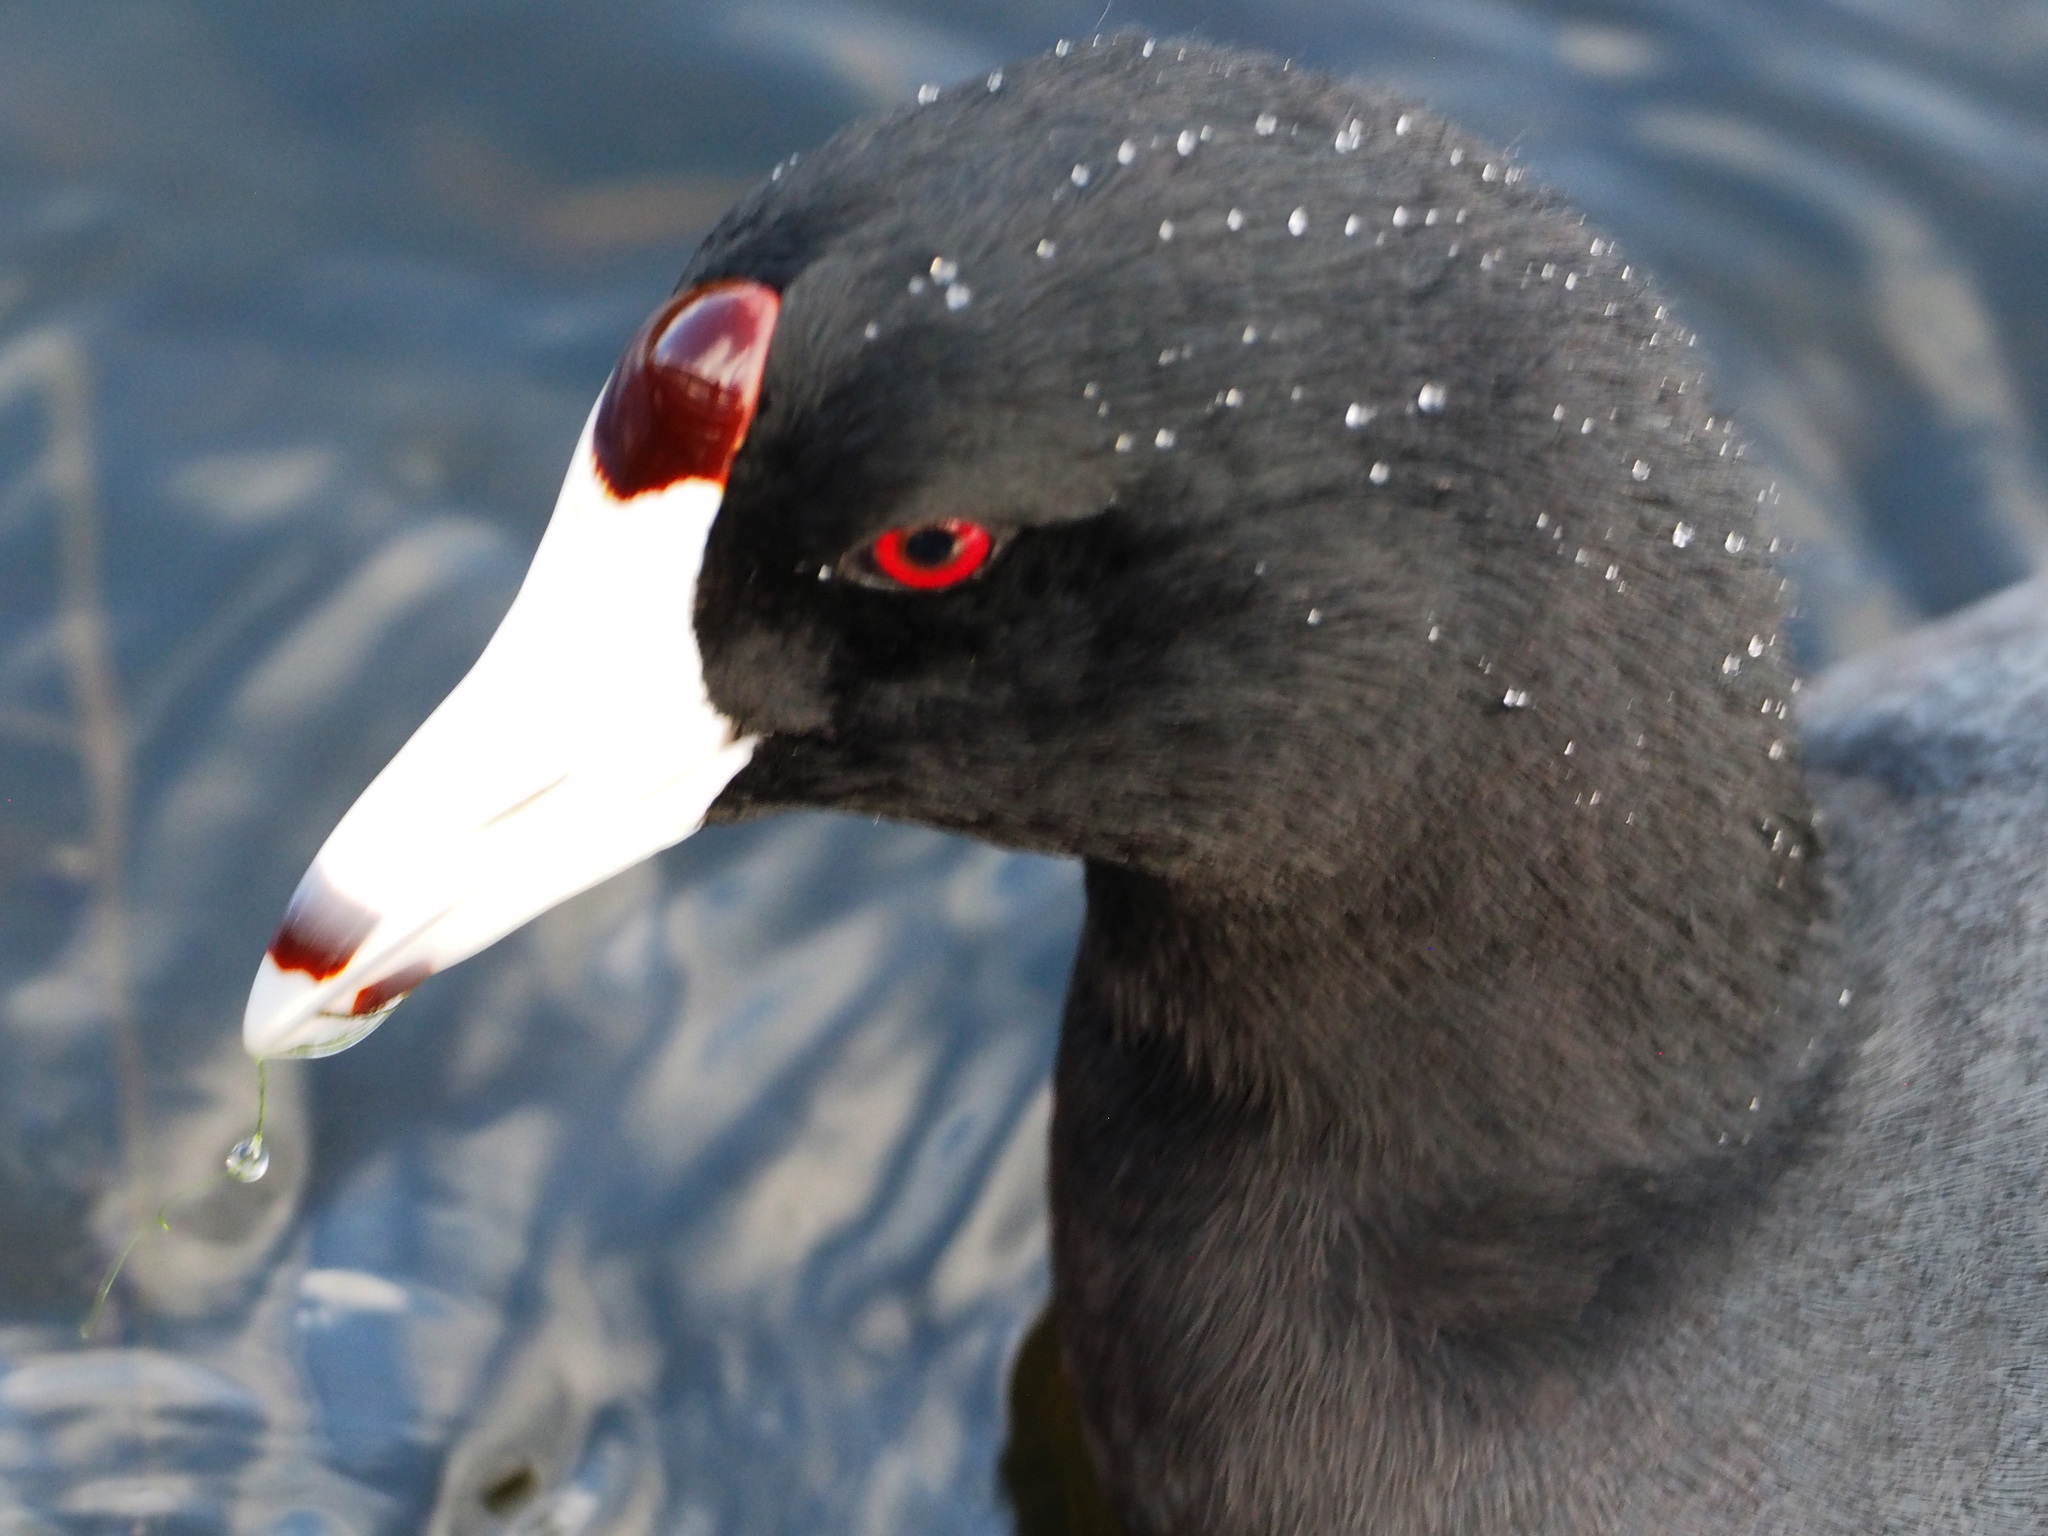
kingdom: Animalia
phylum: Chordata
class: Aves
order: Gruiformes
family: Rallidae
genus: Fulica
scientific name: Fulica americana
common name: American coot
